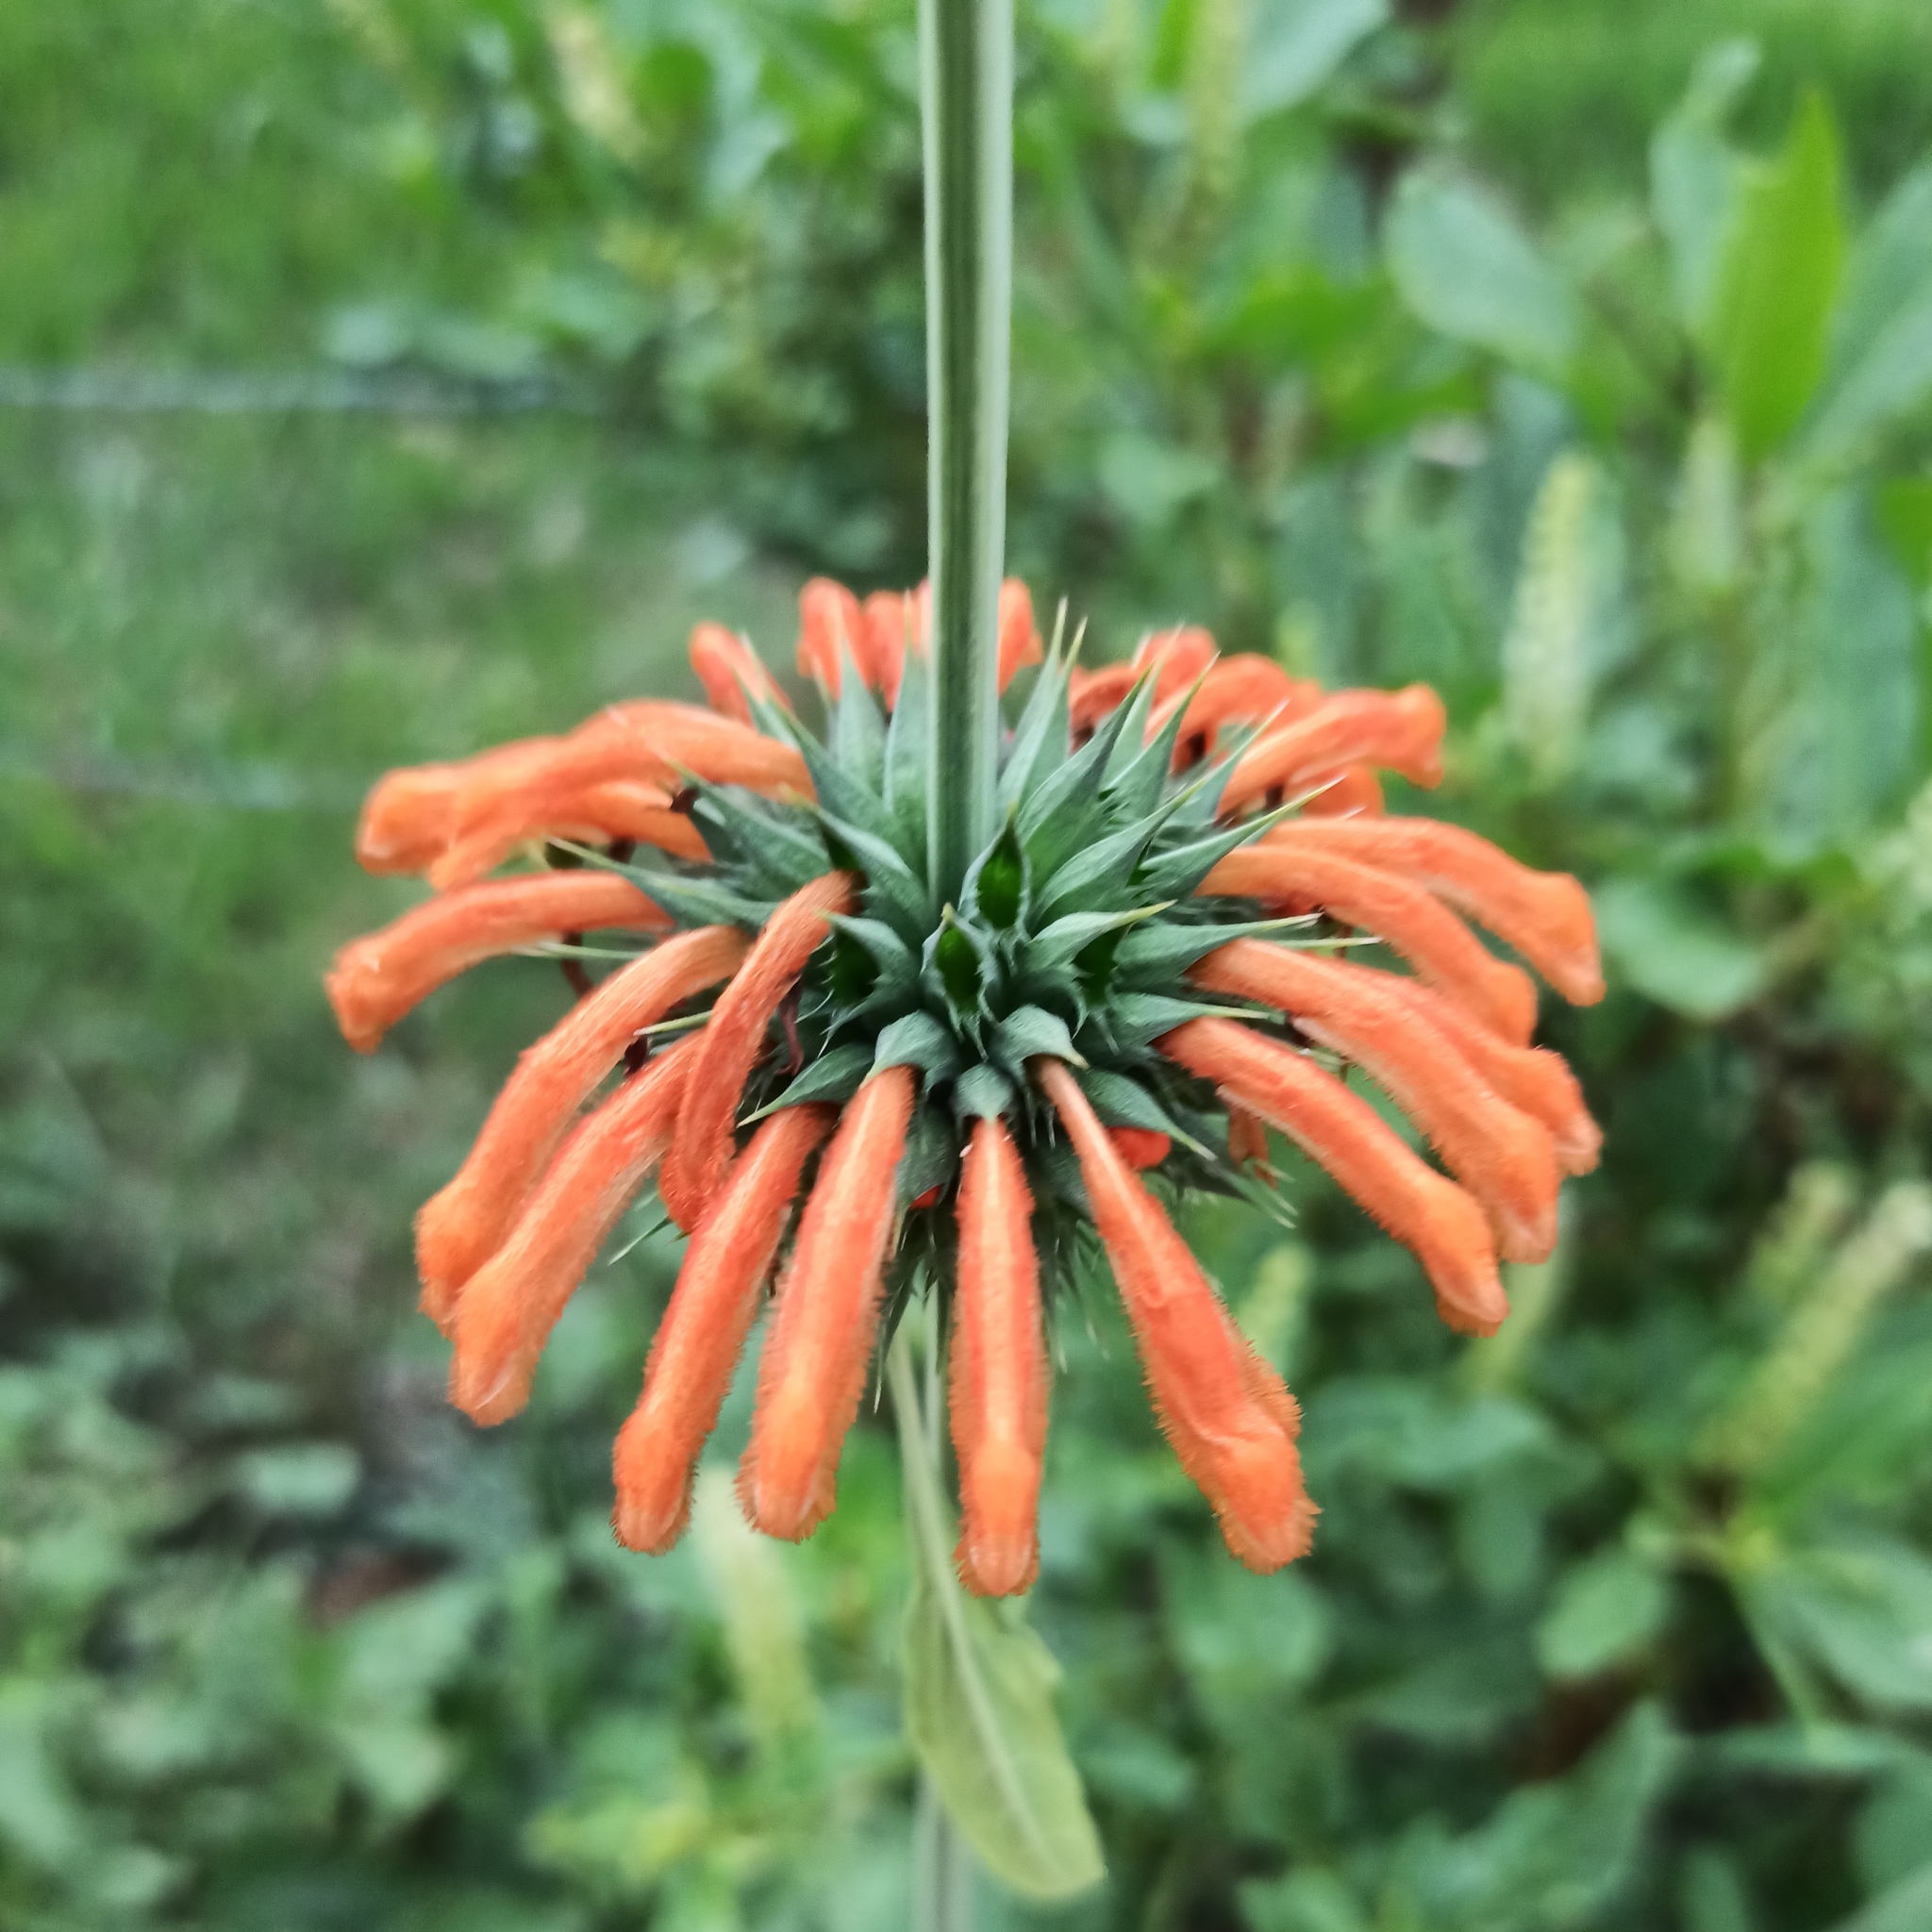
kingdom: Plantae
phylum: Tracheophyta
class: Magnoliopsida
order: Lamiales
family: Lamiaceae
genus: Leonotis
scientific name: Leonotis nepetifolia
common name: Christmas candlestick
